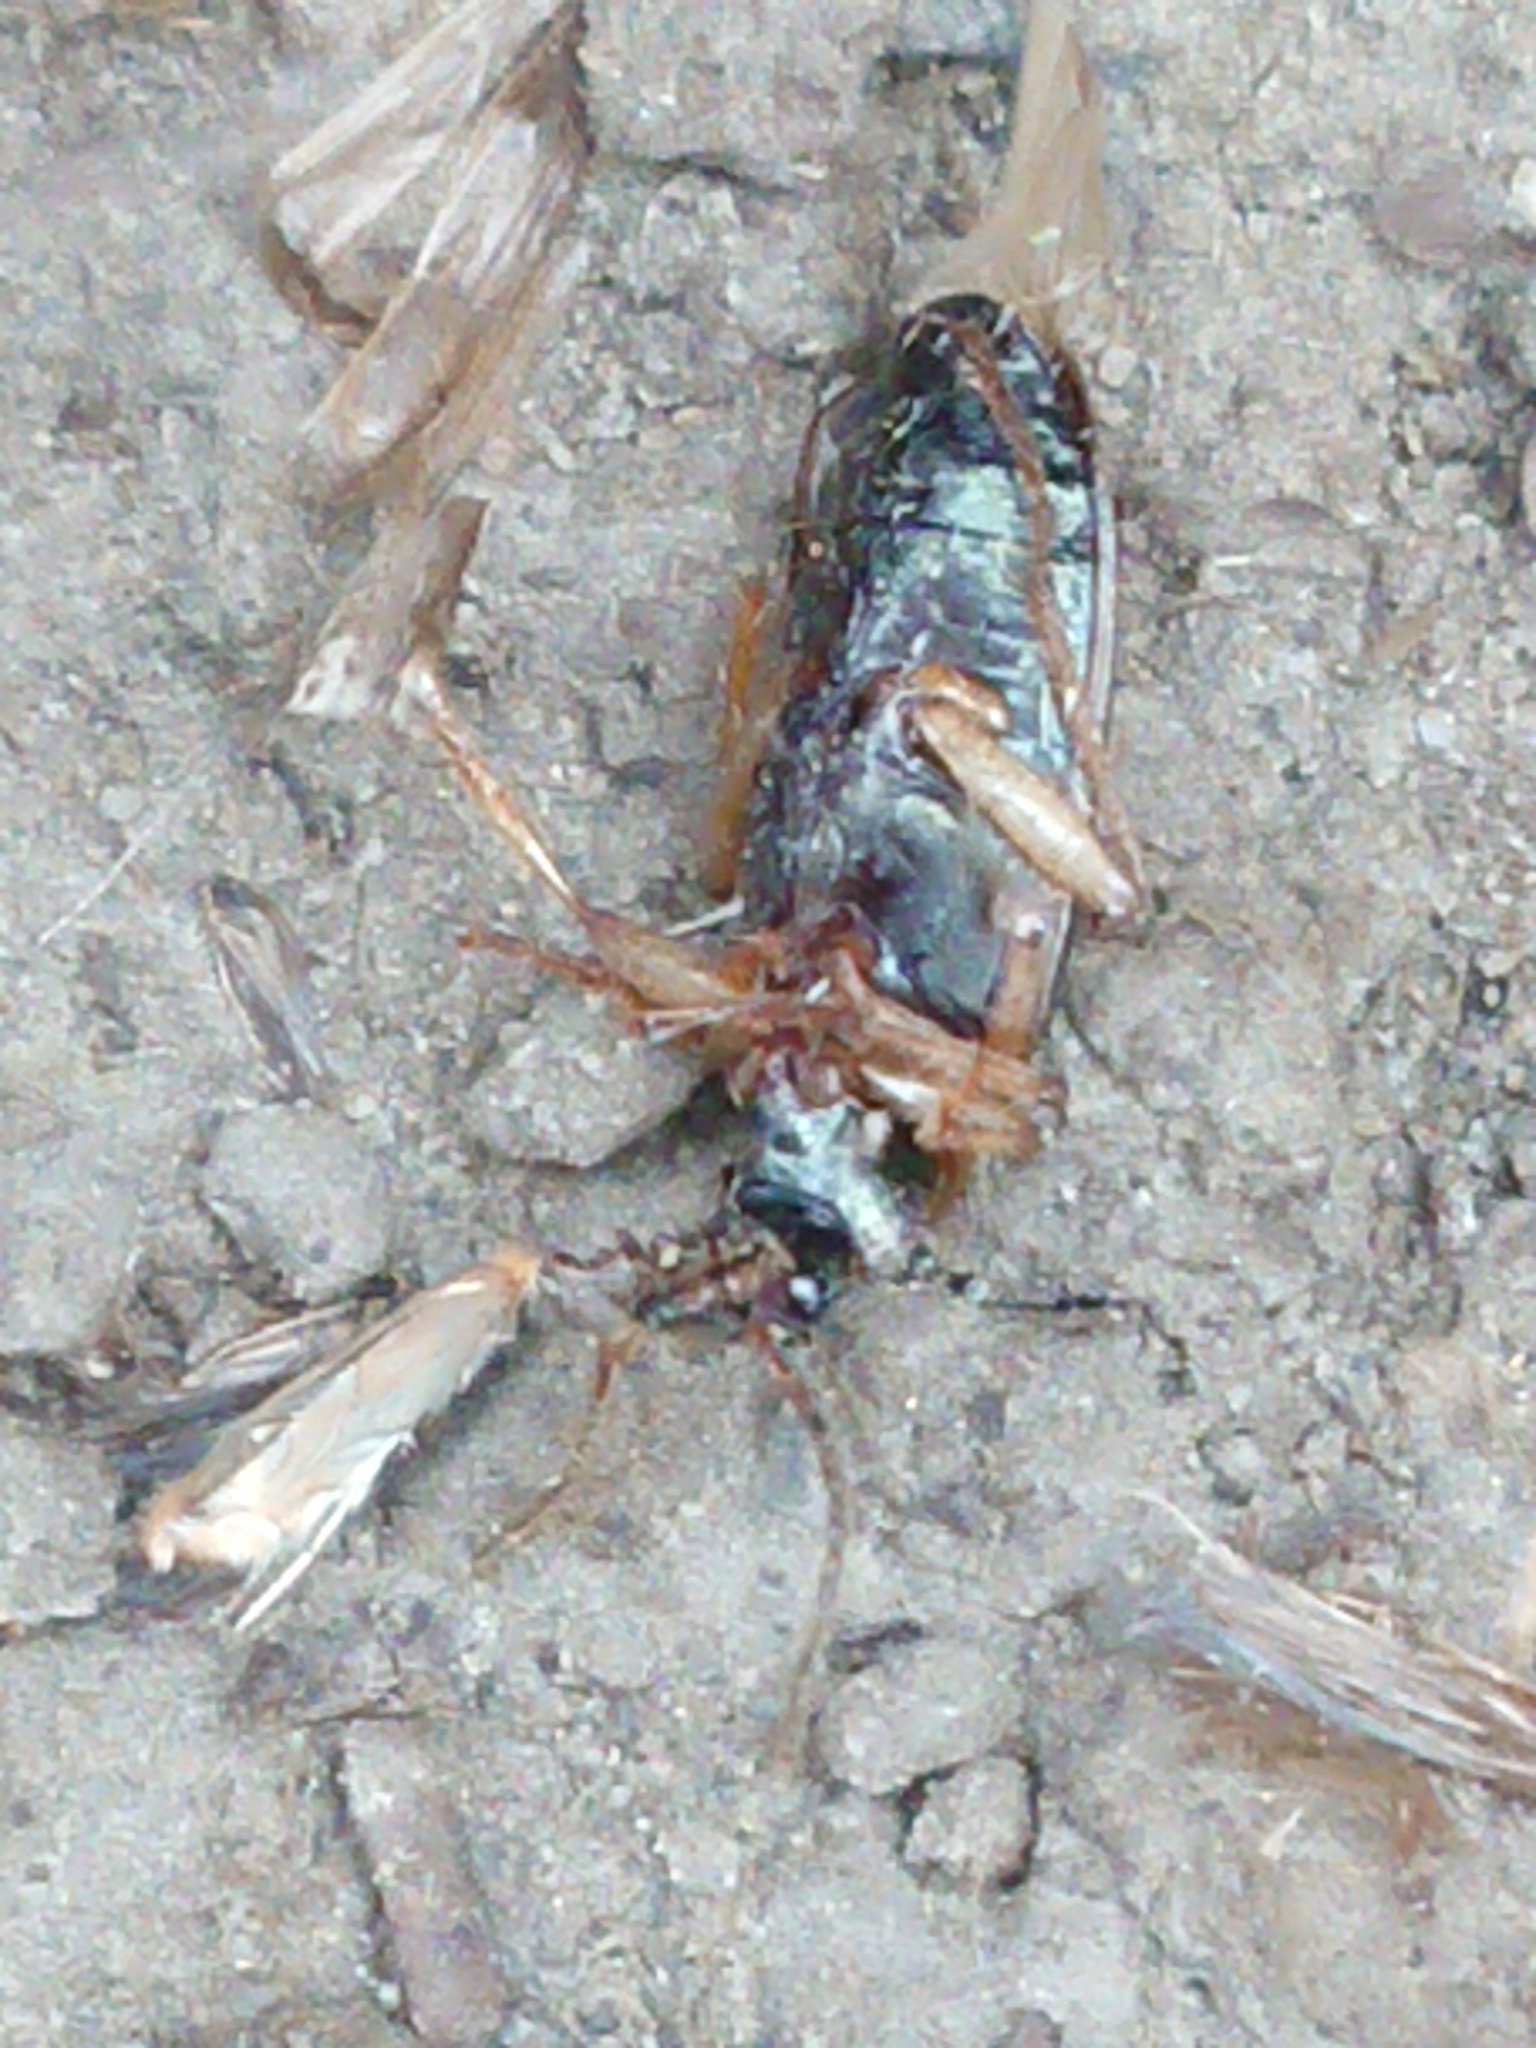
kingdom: Animalia
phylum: Arthropoda
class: Insecta
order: Coleoptera
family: Carabidae
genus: Notagonum
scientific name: Notagonum submetallicum
